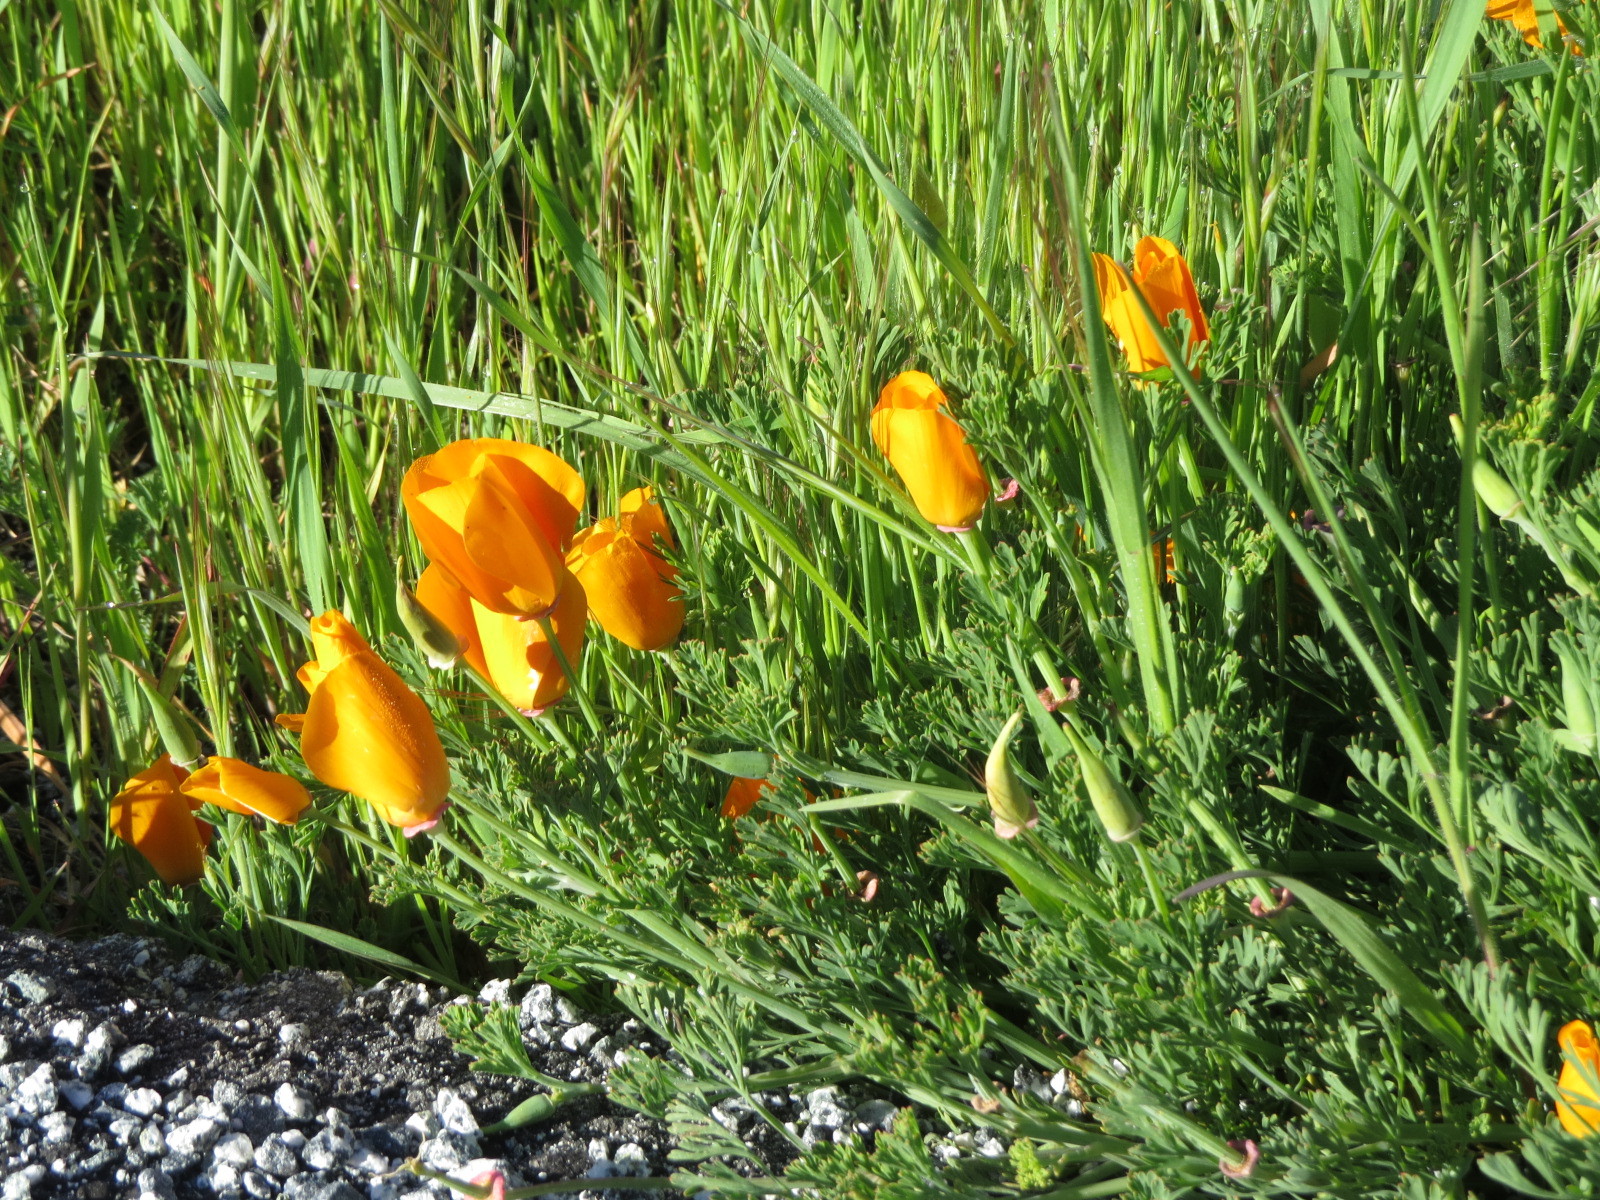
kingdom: Plantae
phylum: Tracheophyta
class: Magnoliopsida
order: Ranunculales
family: Papaveraceae
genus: Eschscholzia
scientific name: Eschscholzia californica
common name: California poppy
